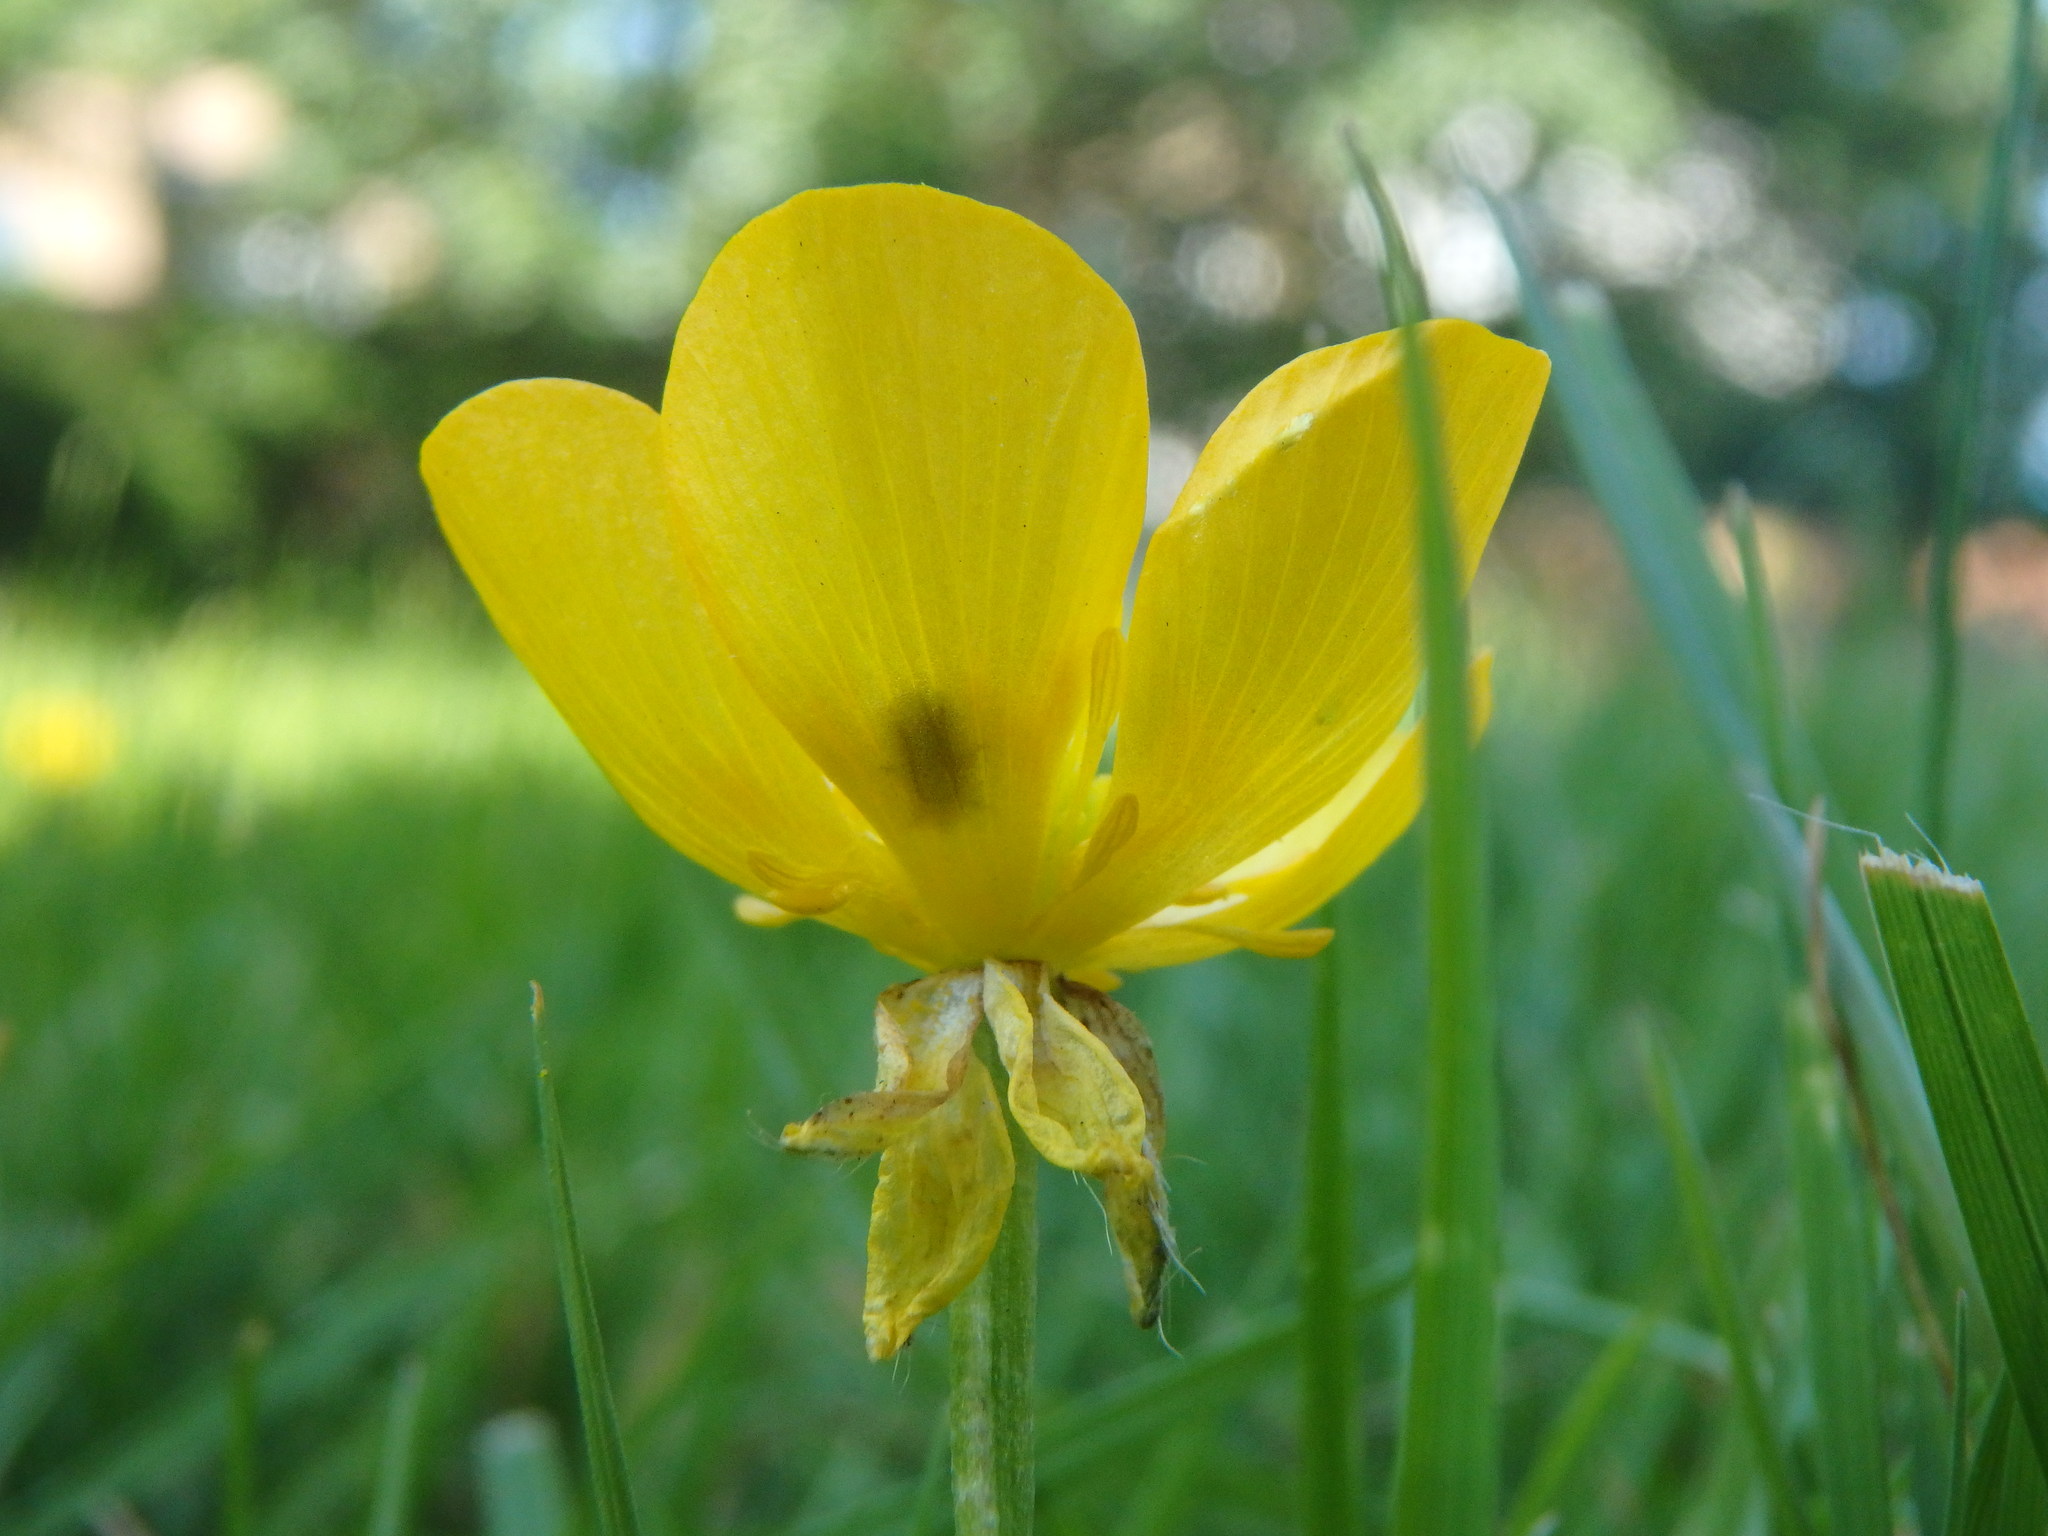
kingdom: Plantae
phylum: Tracheophyta
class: Magnoliopsida
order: Ranunculales
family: Ranunculaceae
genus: Ranunculus
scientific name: Ranunculus bulbosus
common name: Bulbous buttercup
